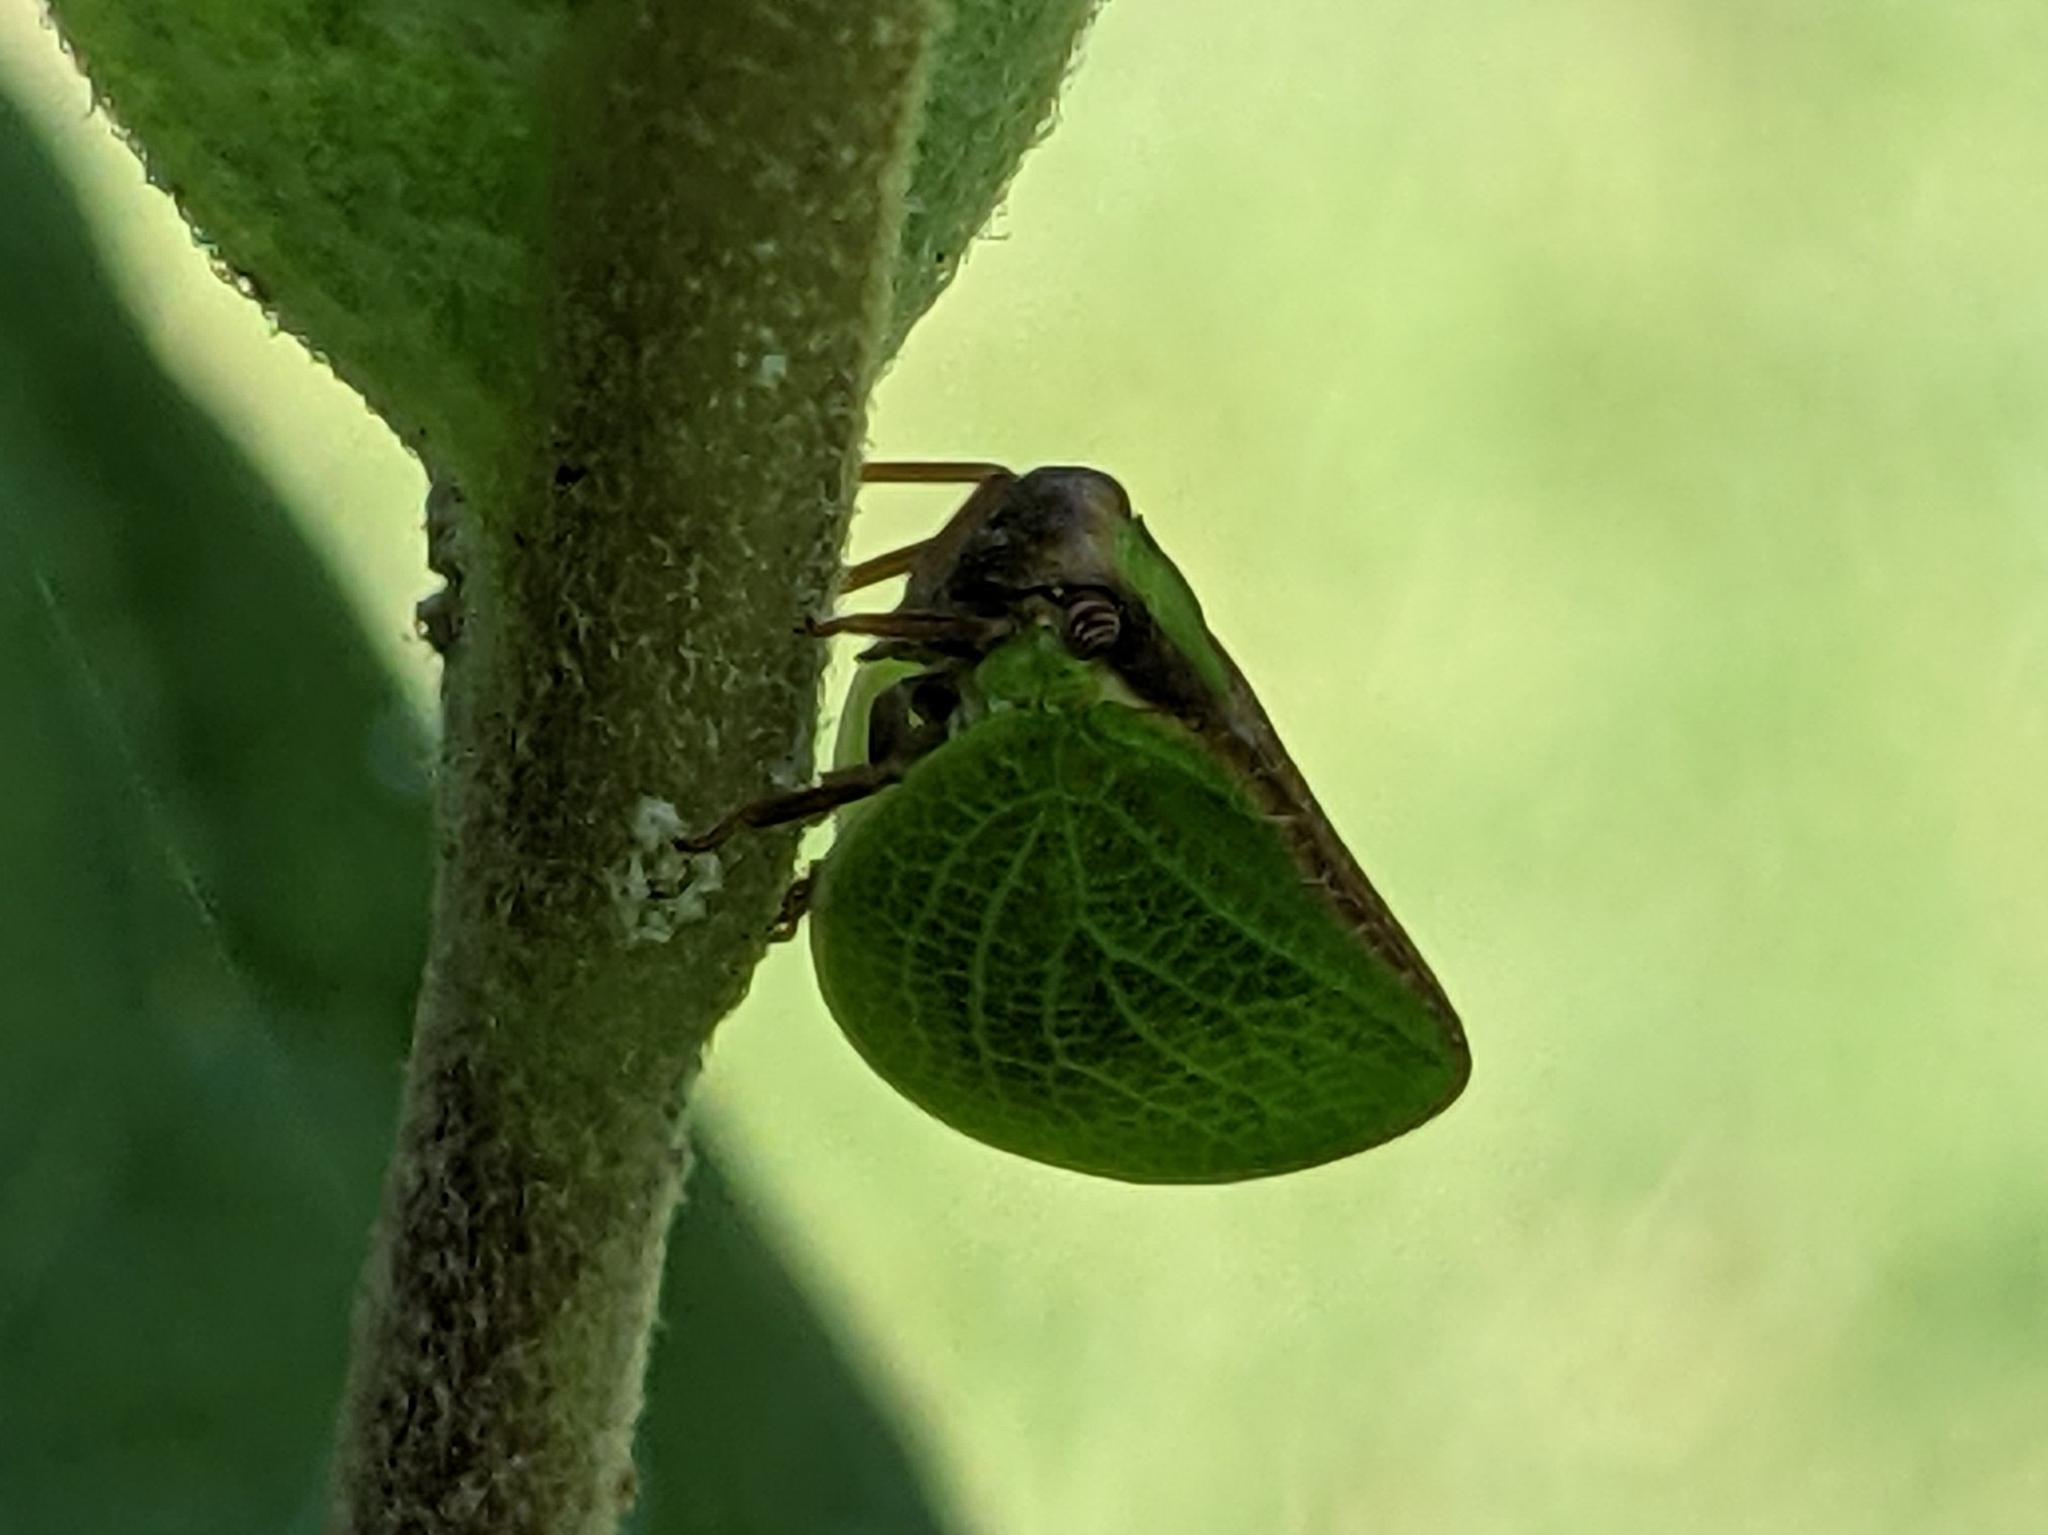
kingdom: Animalia
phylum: Arthropoda
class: Insecta
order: Hemiptera
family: Acanaloniidae
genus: Acanalonia
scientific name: Acanalonia bivittata
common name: Two-striped planthopper
